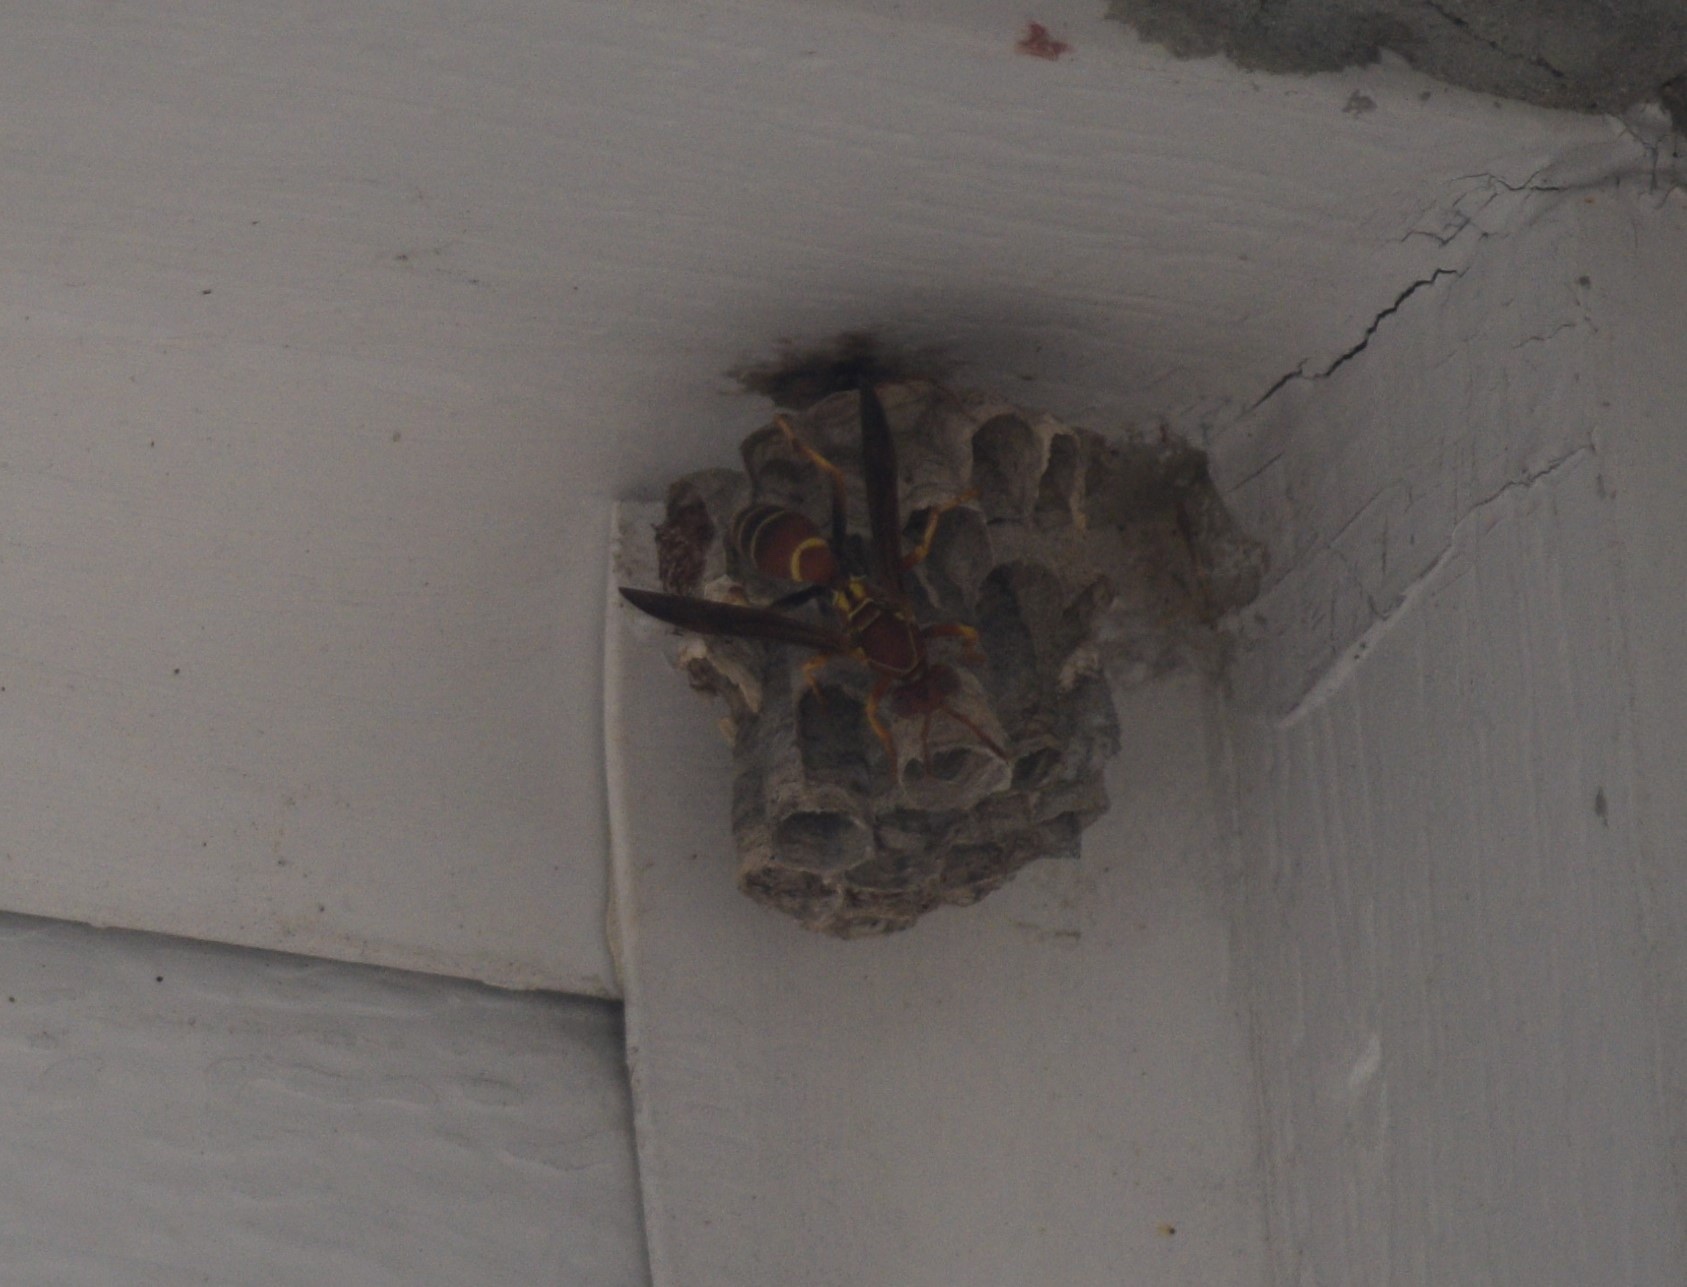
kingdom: Animalia
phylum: Arthropoda
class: Insecta
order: Hymenoptera
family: Eumenidae
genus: Polistes
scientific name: Polistes bellicosus
